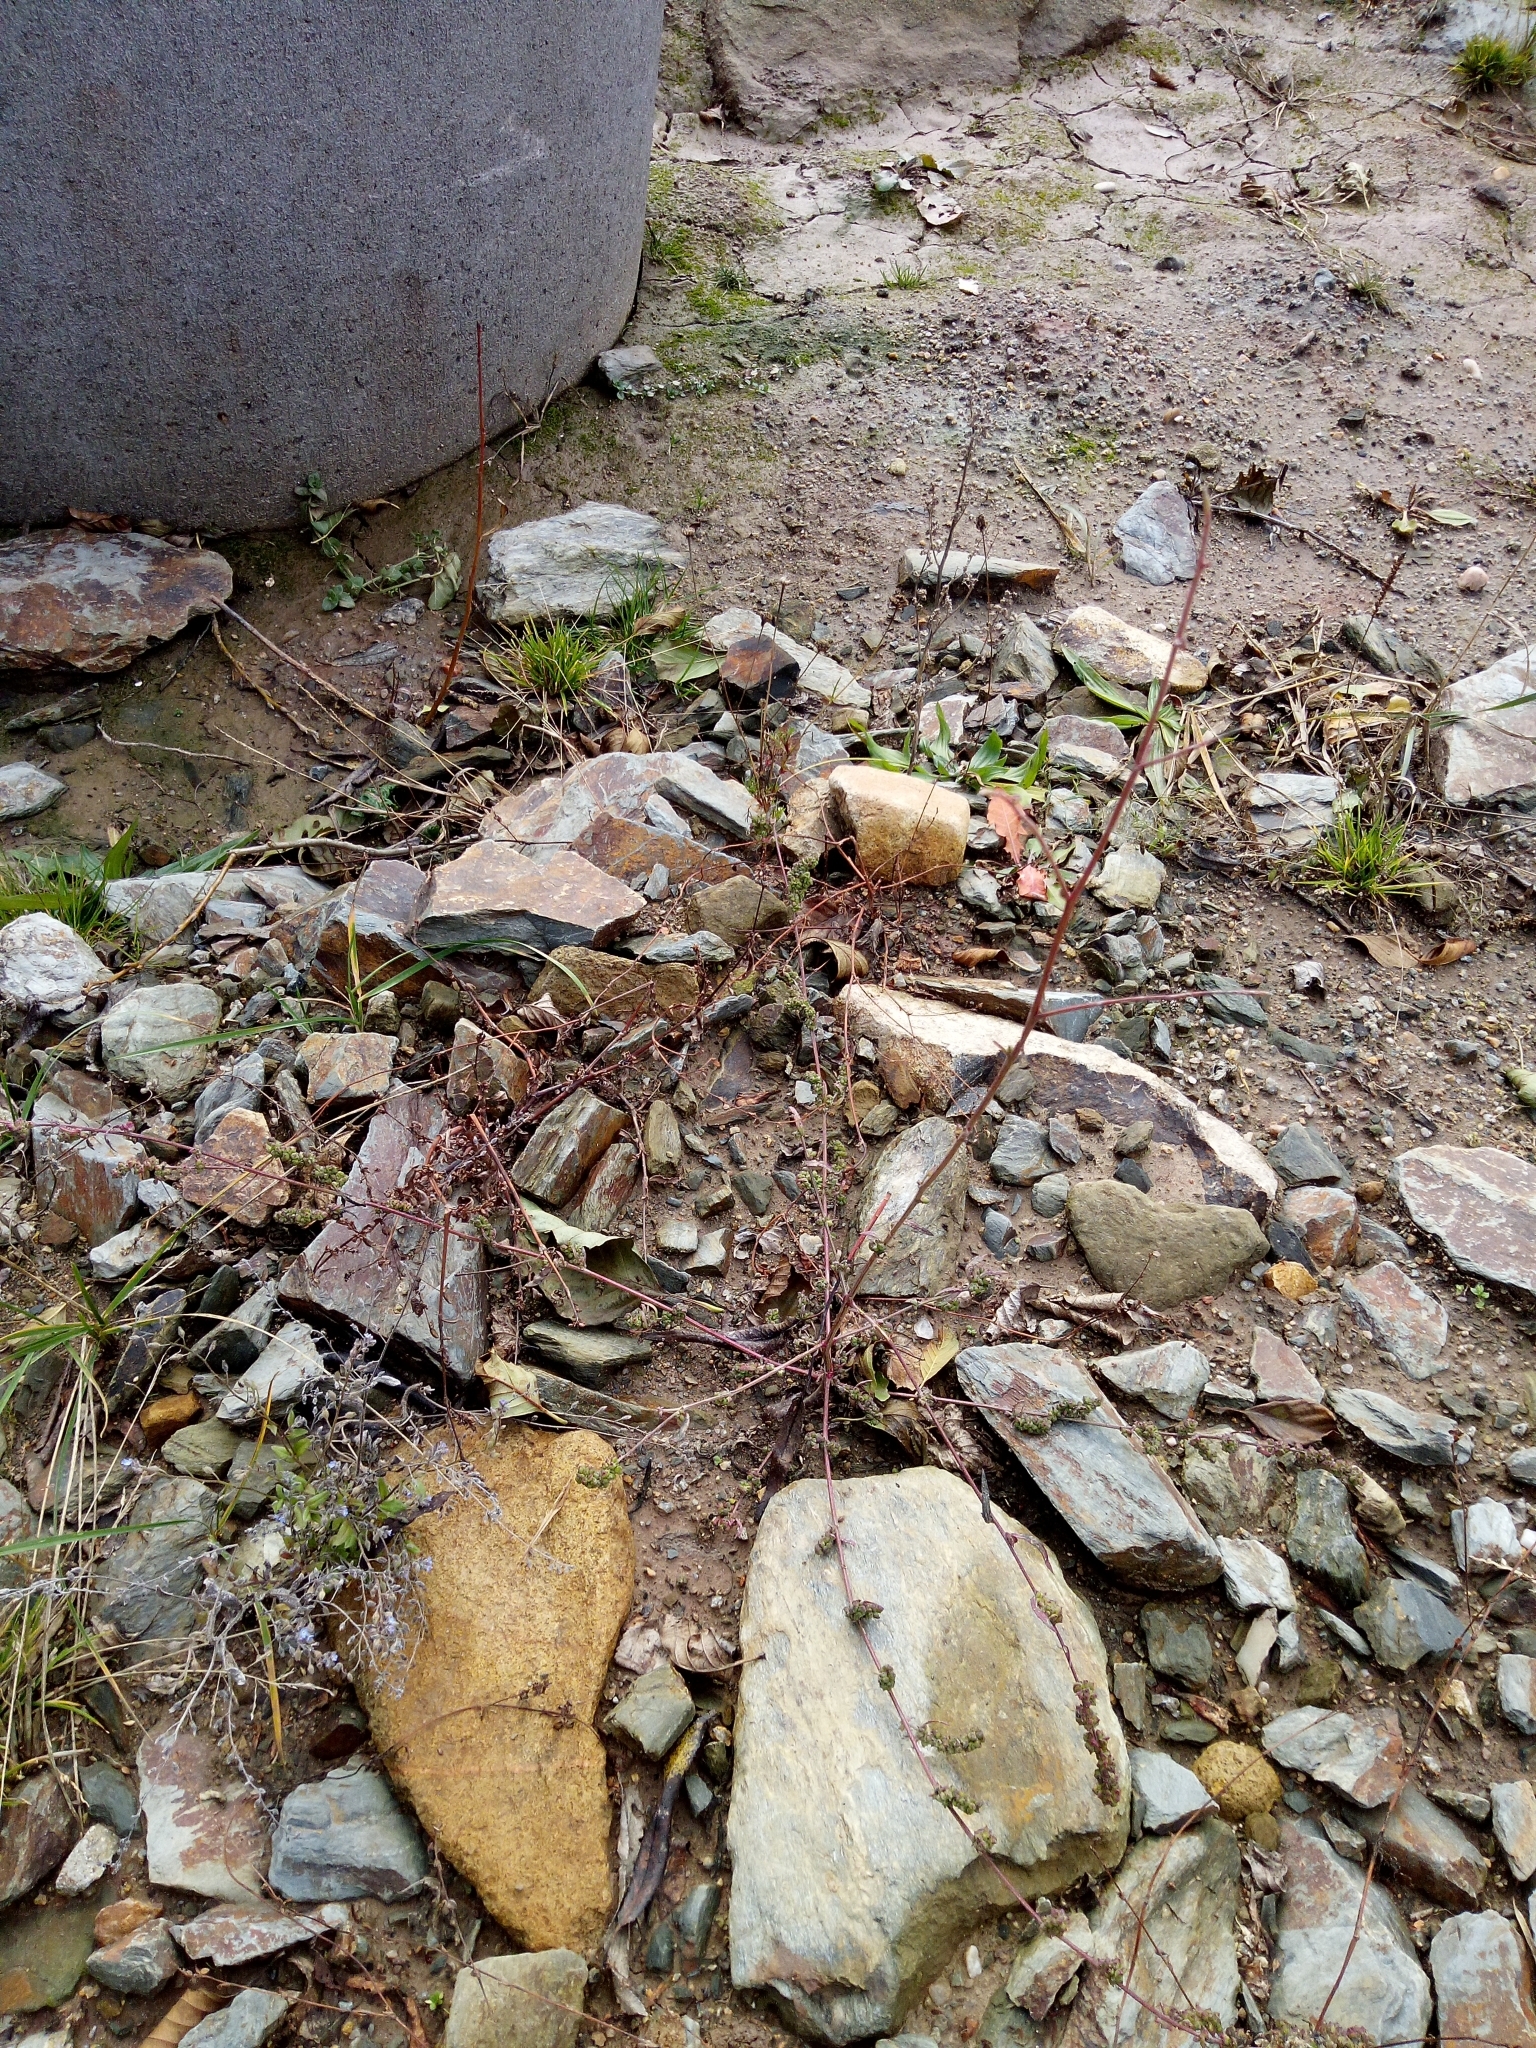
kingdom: Plantae
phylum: Tracheophyta
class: Magnoliopsida
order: Caryophyllales
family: Amaranthaceae
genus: Atriplex
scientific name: Atriplex patula
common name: Common orache
